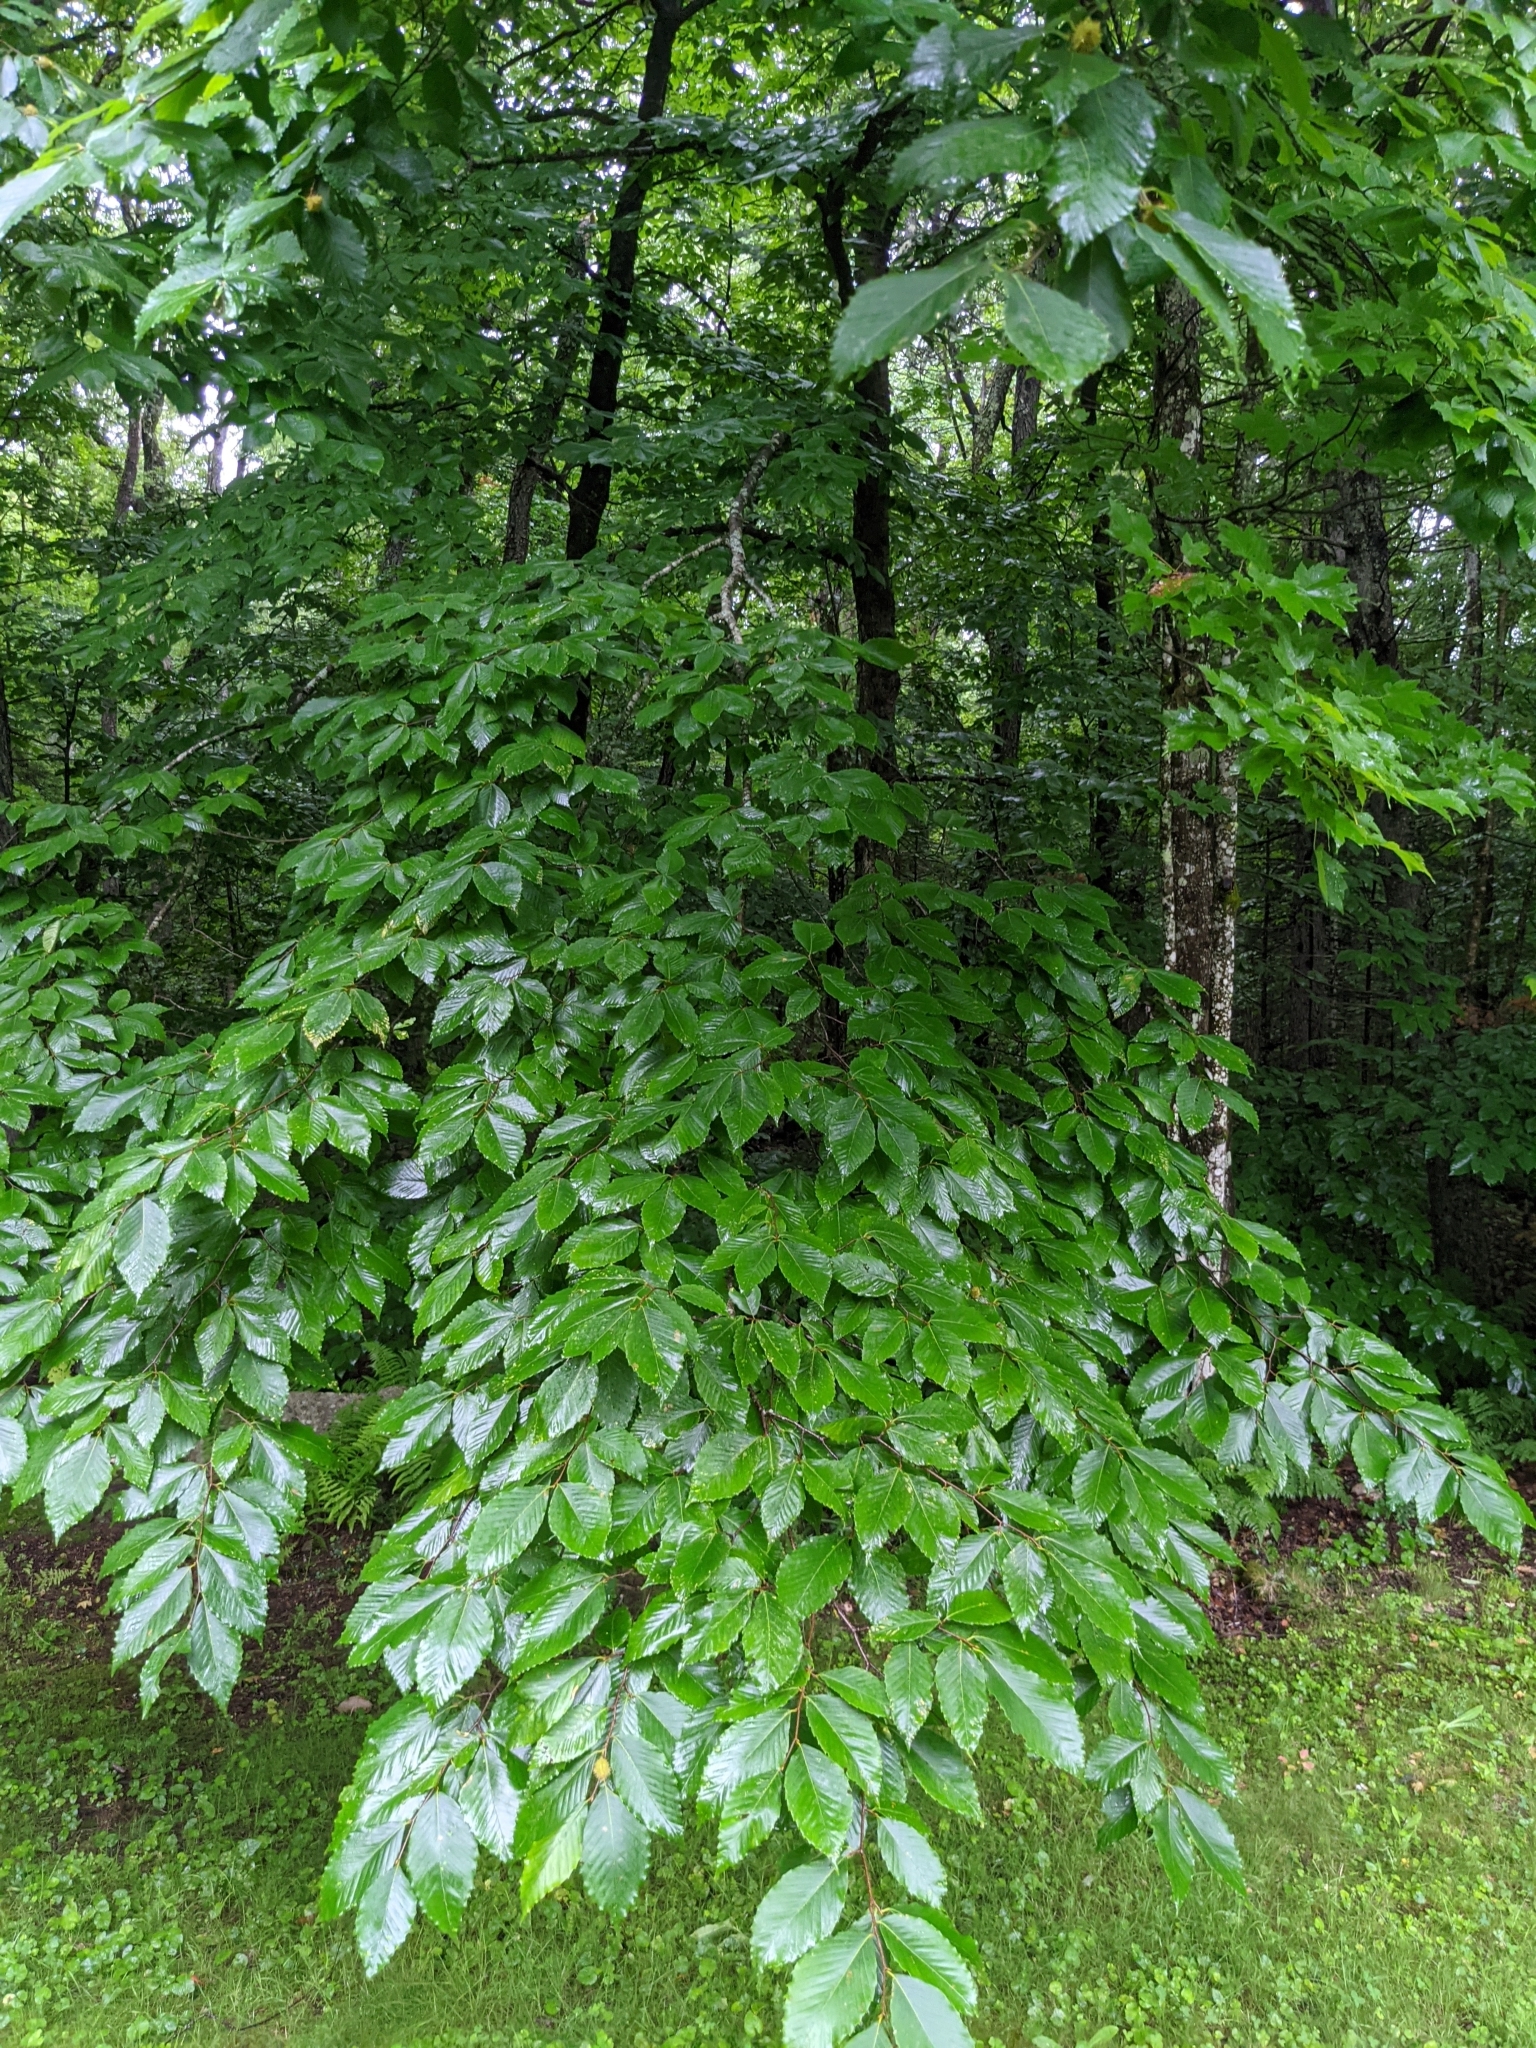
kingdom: Plantae
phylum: Tracheophyta
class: Magnoliopsida
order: Fagales
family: Fagaceae
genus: Fagus
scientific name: Fagus grandifolia
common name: American beech
